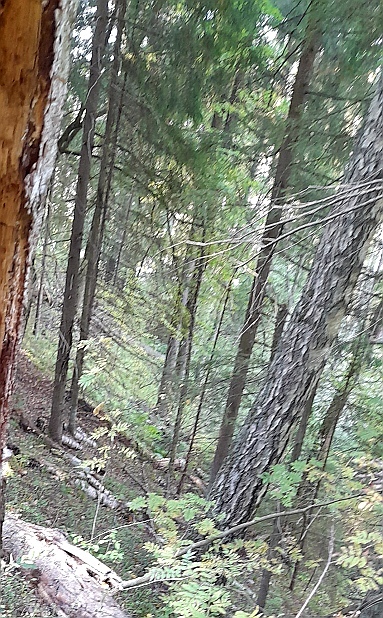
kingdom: Plantae
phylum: Tracheophyta
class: Pinopsida
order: Pinales
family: Pinaceae
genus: Picea
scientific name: Picea abies
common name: Norway spruce
